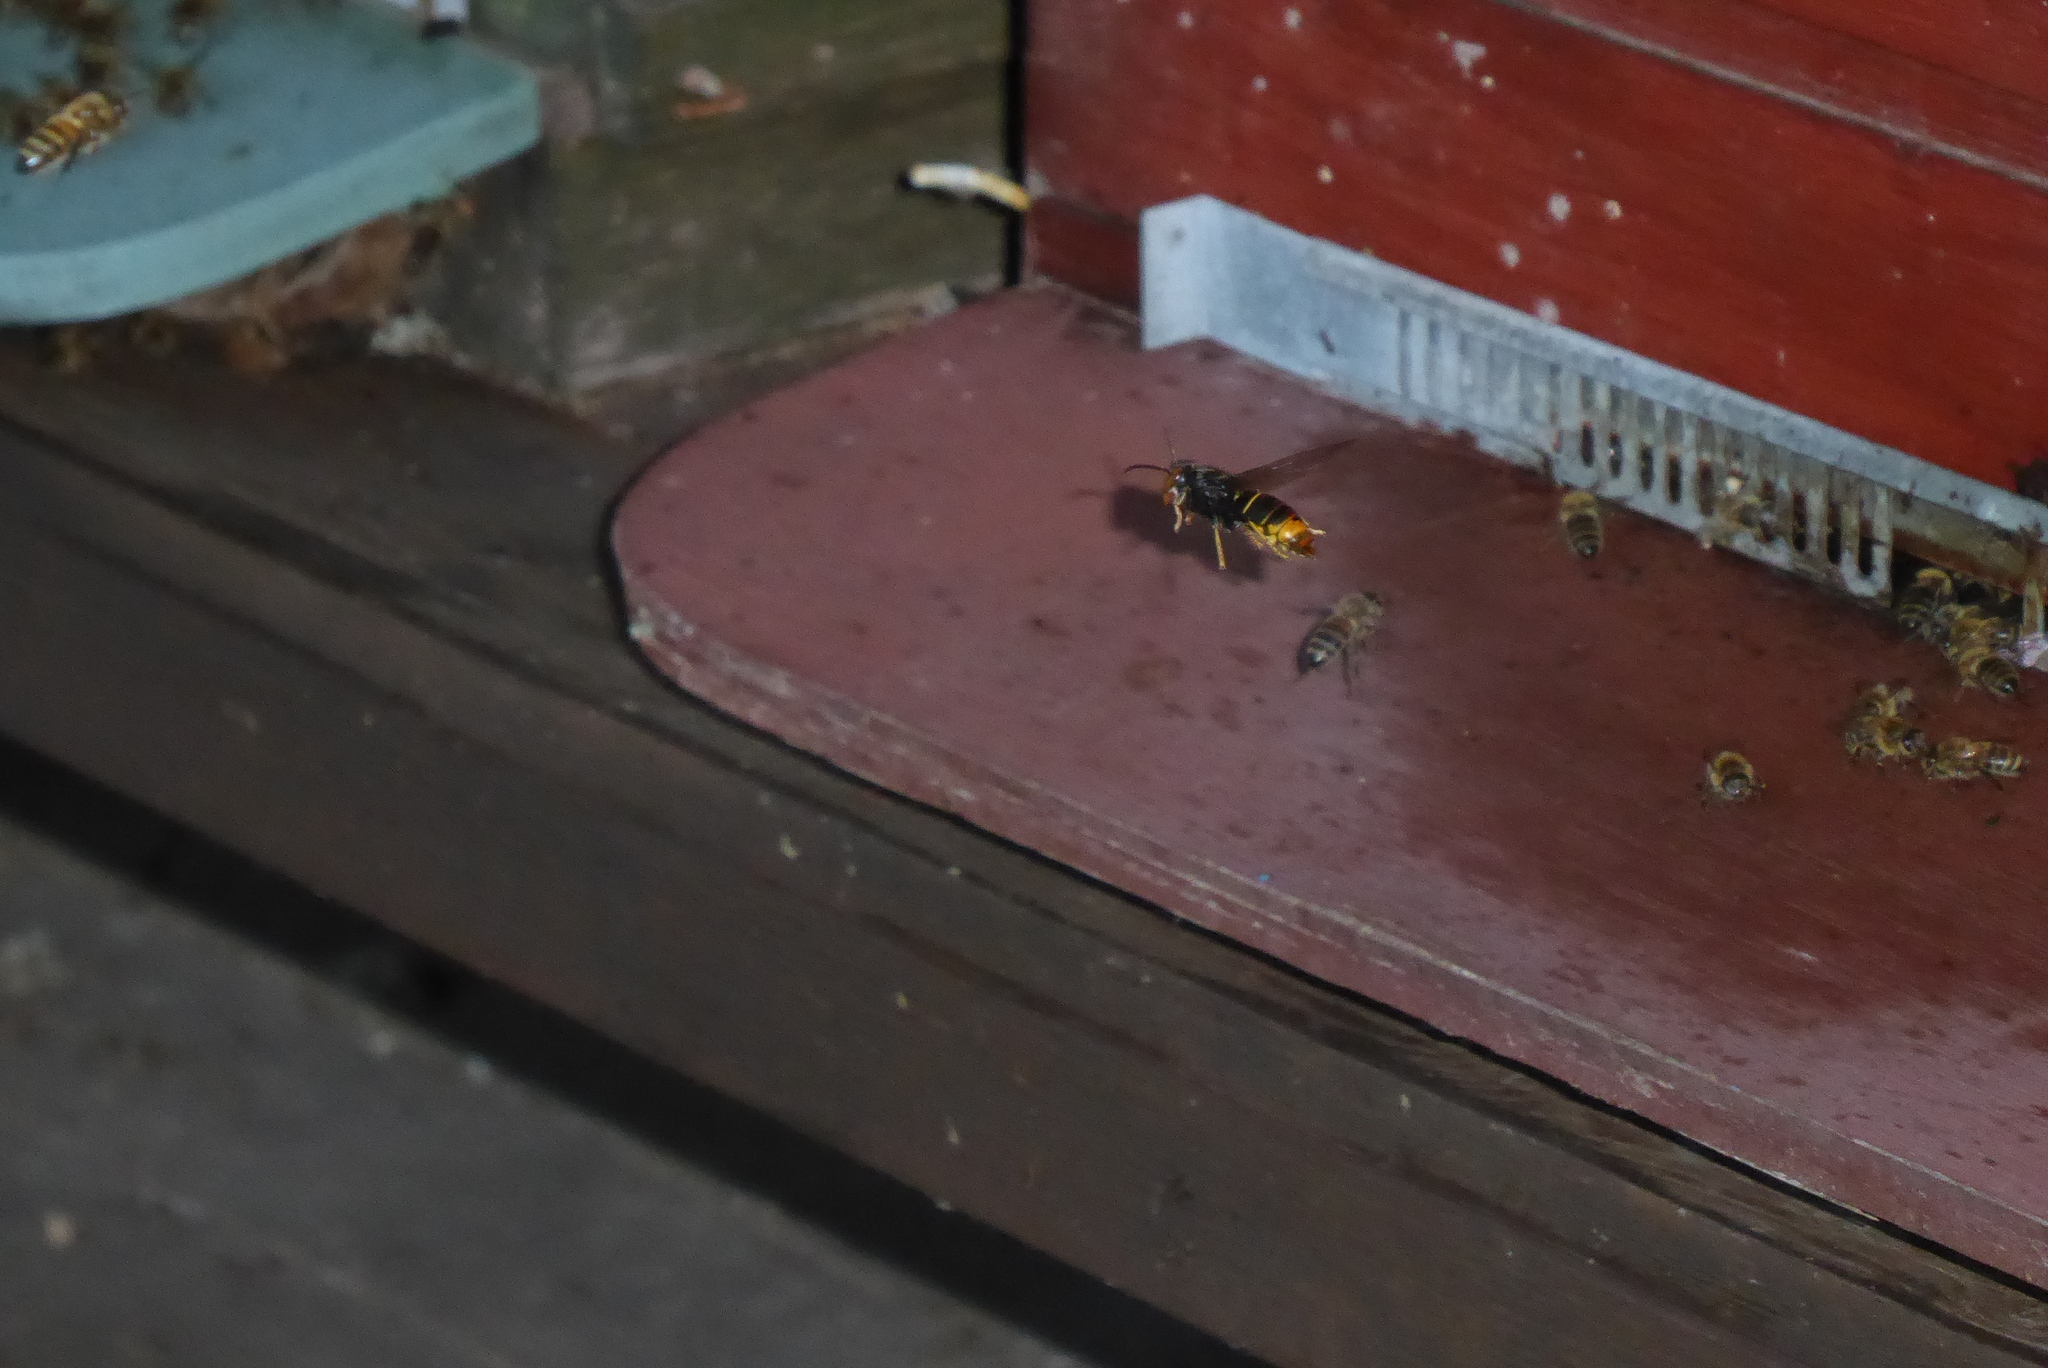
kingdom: Animalia
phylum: Arthropoda
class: Insecta
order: Hymenoptera
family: Vespidae
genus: Vespa
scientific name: Vespa velutina
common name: Asian hornet
